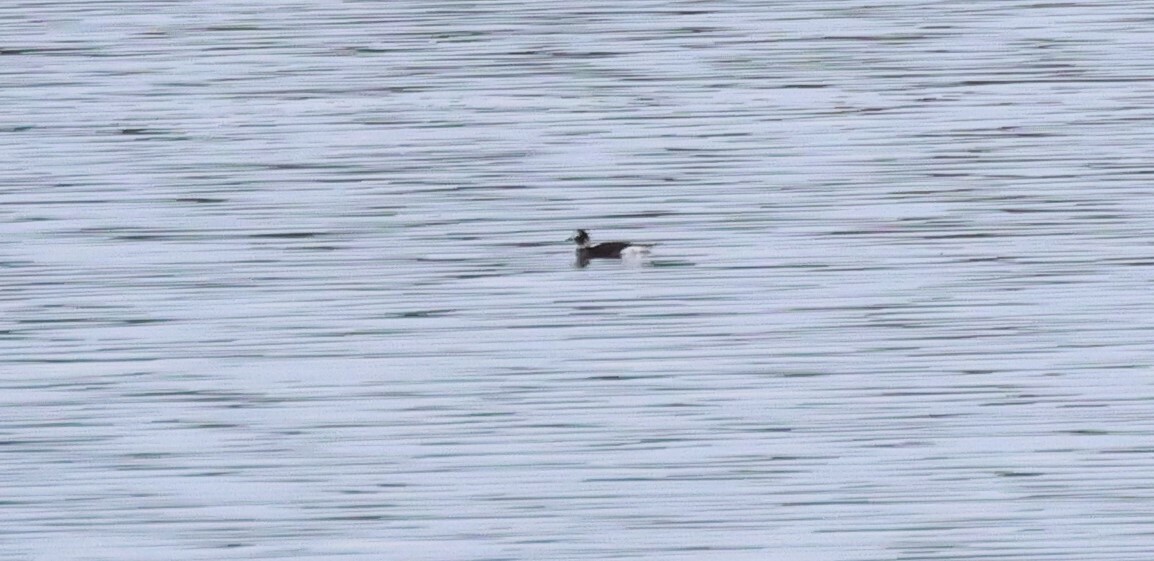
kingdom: Animalia
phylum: Chordata
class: Aves
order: Anseriformes
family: Anatidae
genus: Clangula
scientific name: Clangula hyemalis
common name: Long-tailed duck
